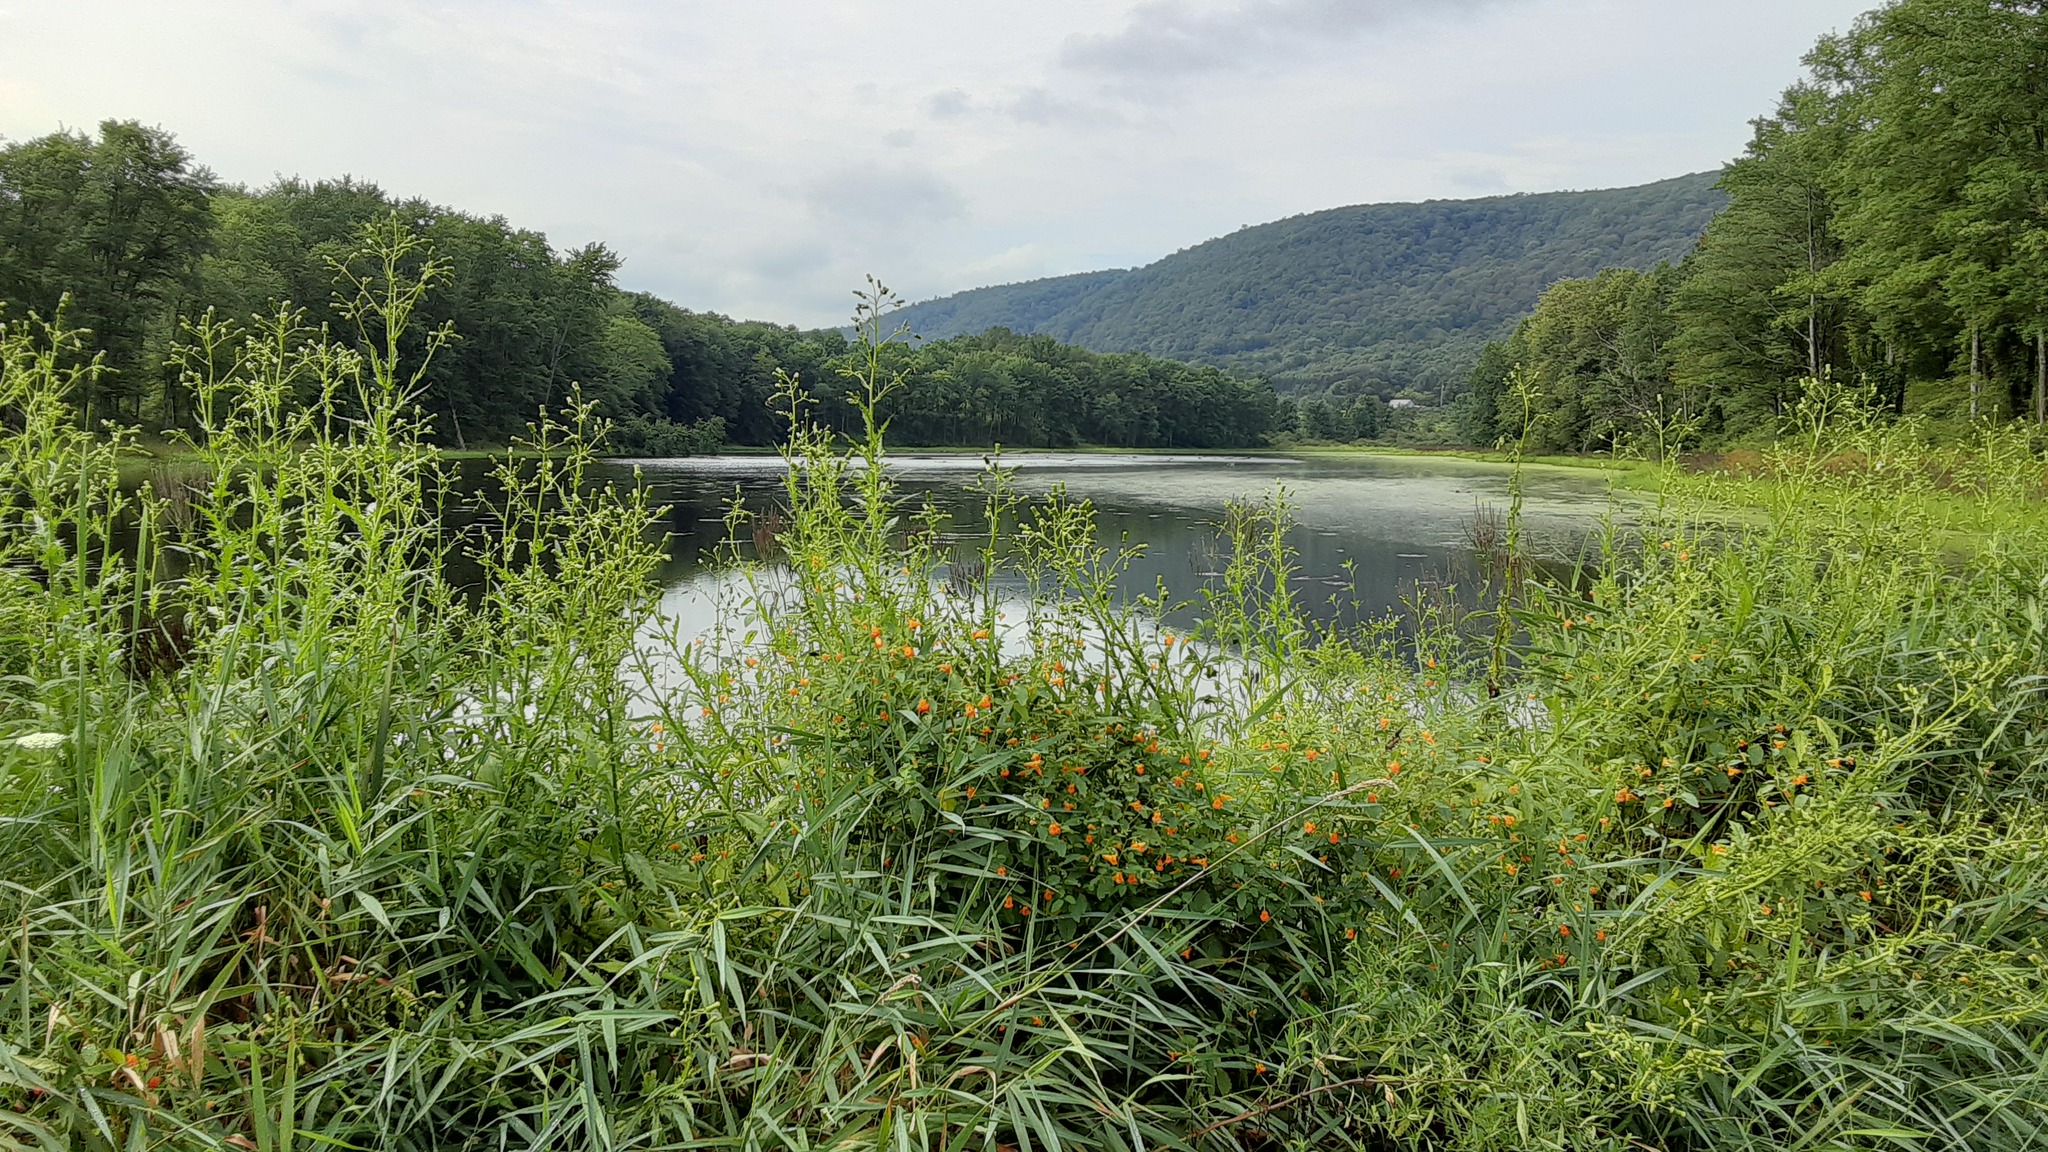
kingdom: Plantae
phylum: Tracheophyta
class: Magnoliopsida
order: Ericales
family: Balsaminaceae
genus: Impatiens
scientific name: Impatiens capensis
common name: Orange balsam
